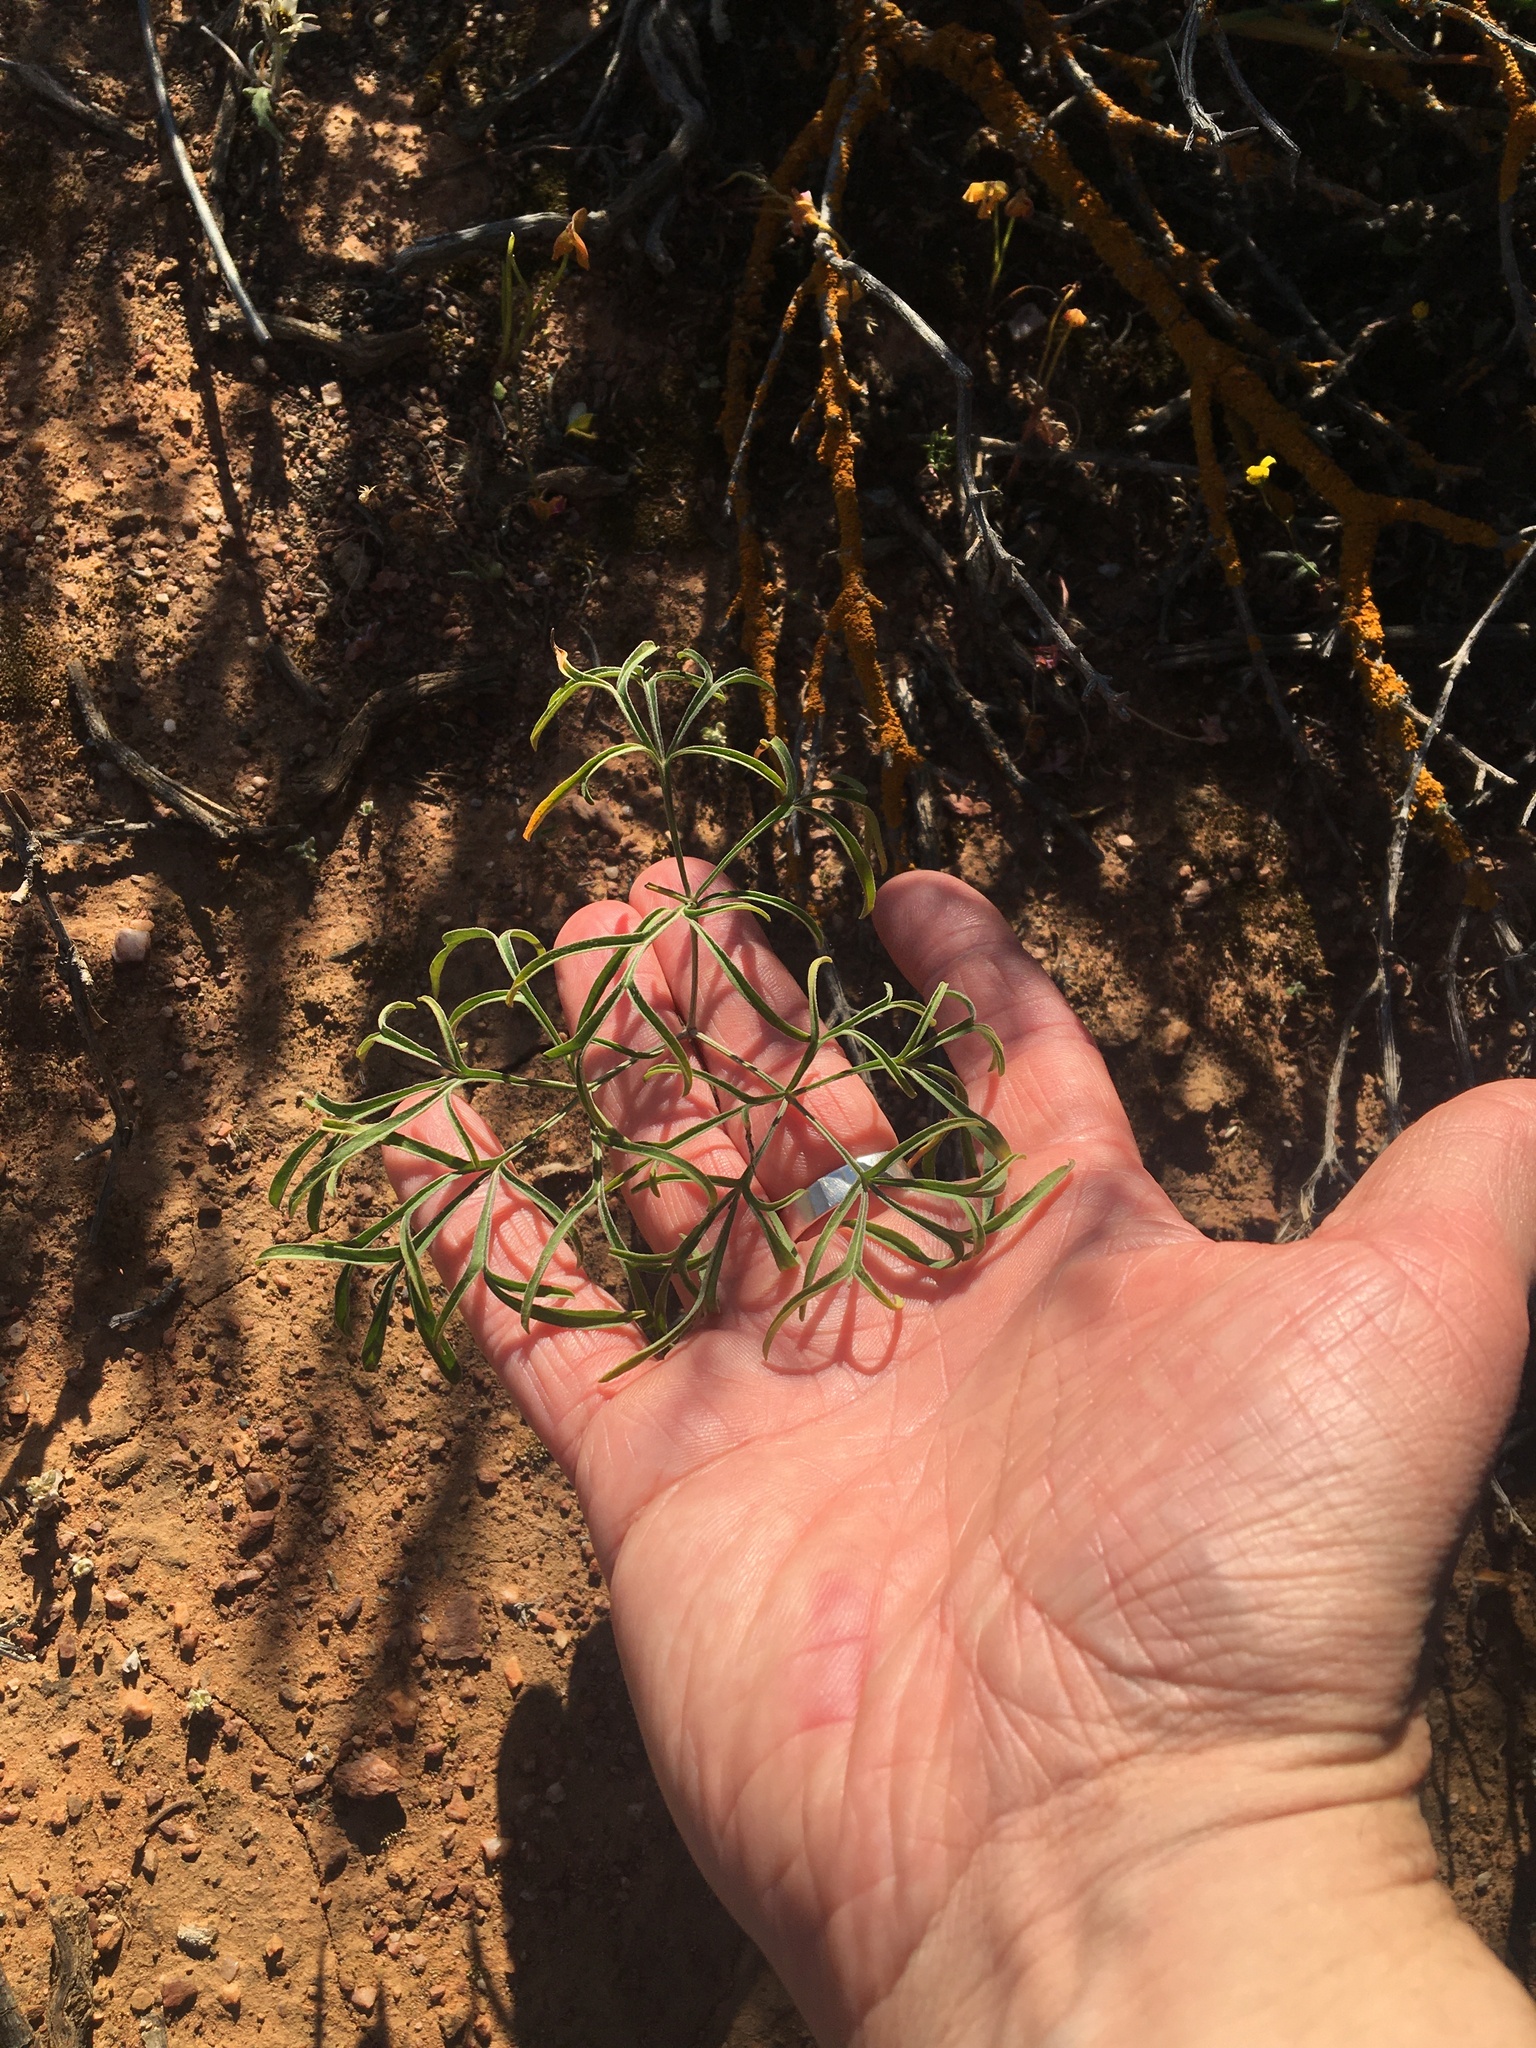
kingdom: Plantae
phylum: Tracheophyta
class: Magnoliopsida
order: Geraniales
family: Geraniaceae
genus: Pelargonium
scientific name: Pelargonium luteolum
